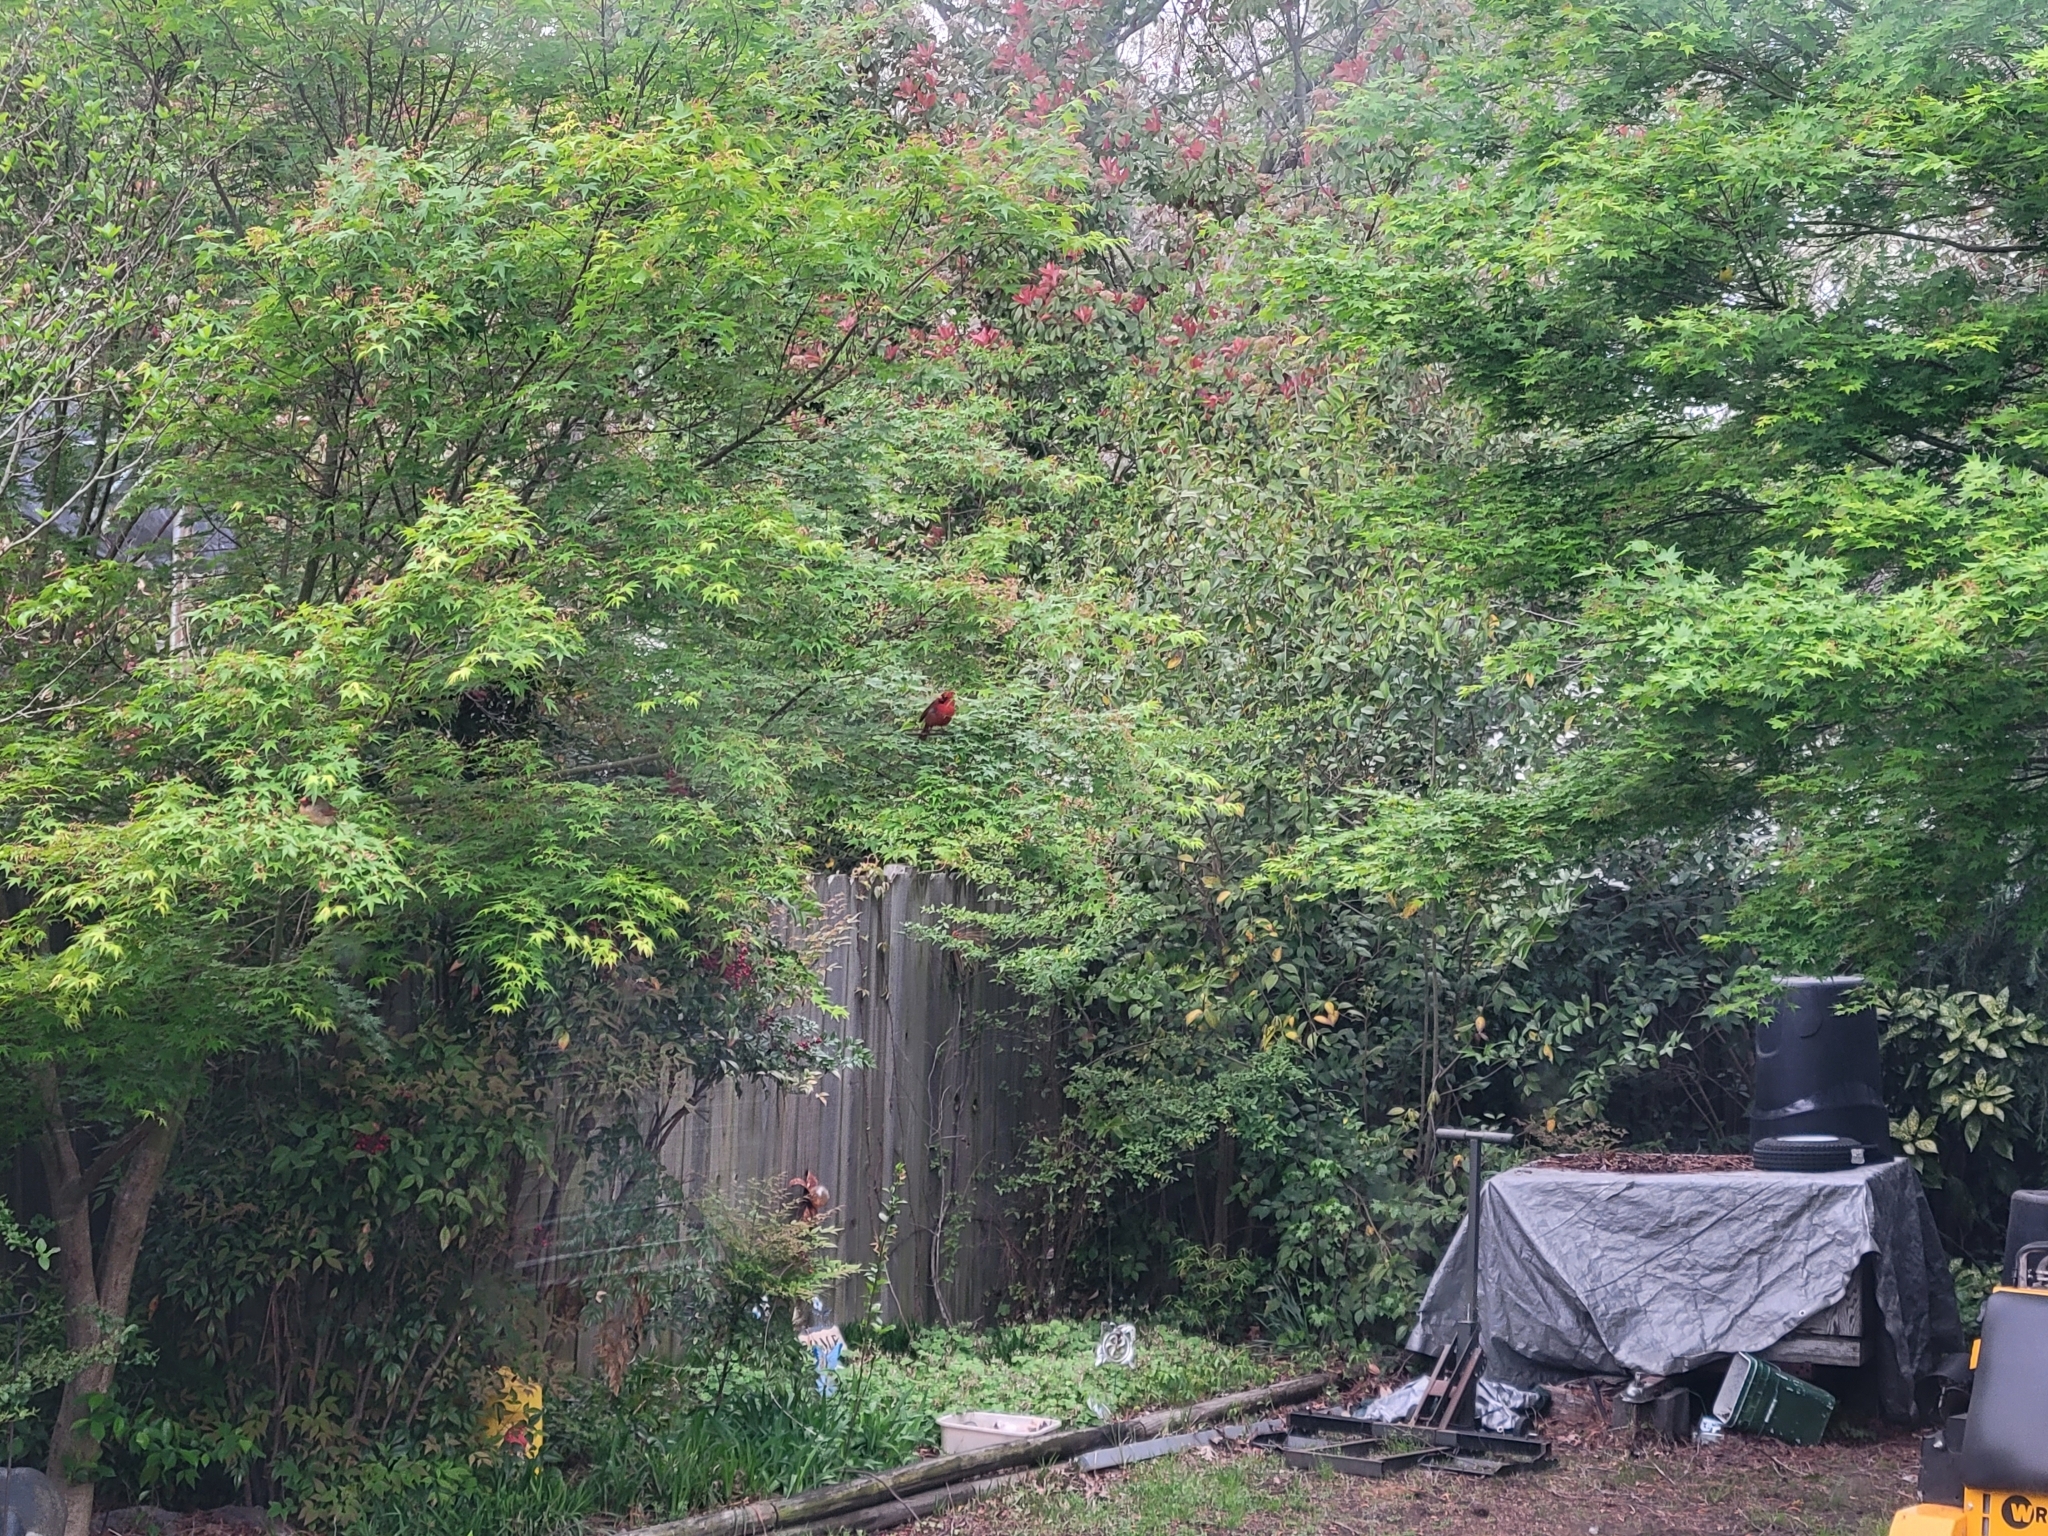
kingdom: Animalia
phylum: Chordata
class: Aves
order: Passeriformes
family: Cardinalidae
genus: Cardinalis
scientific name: Cardinalis cardinalis
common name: Northern cardinal
